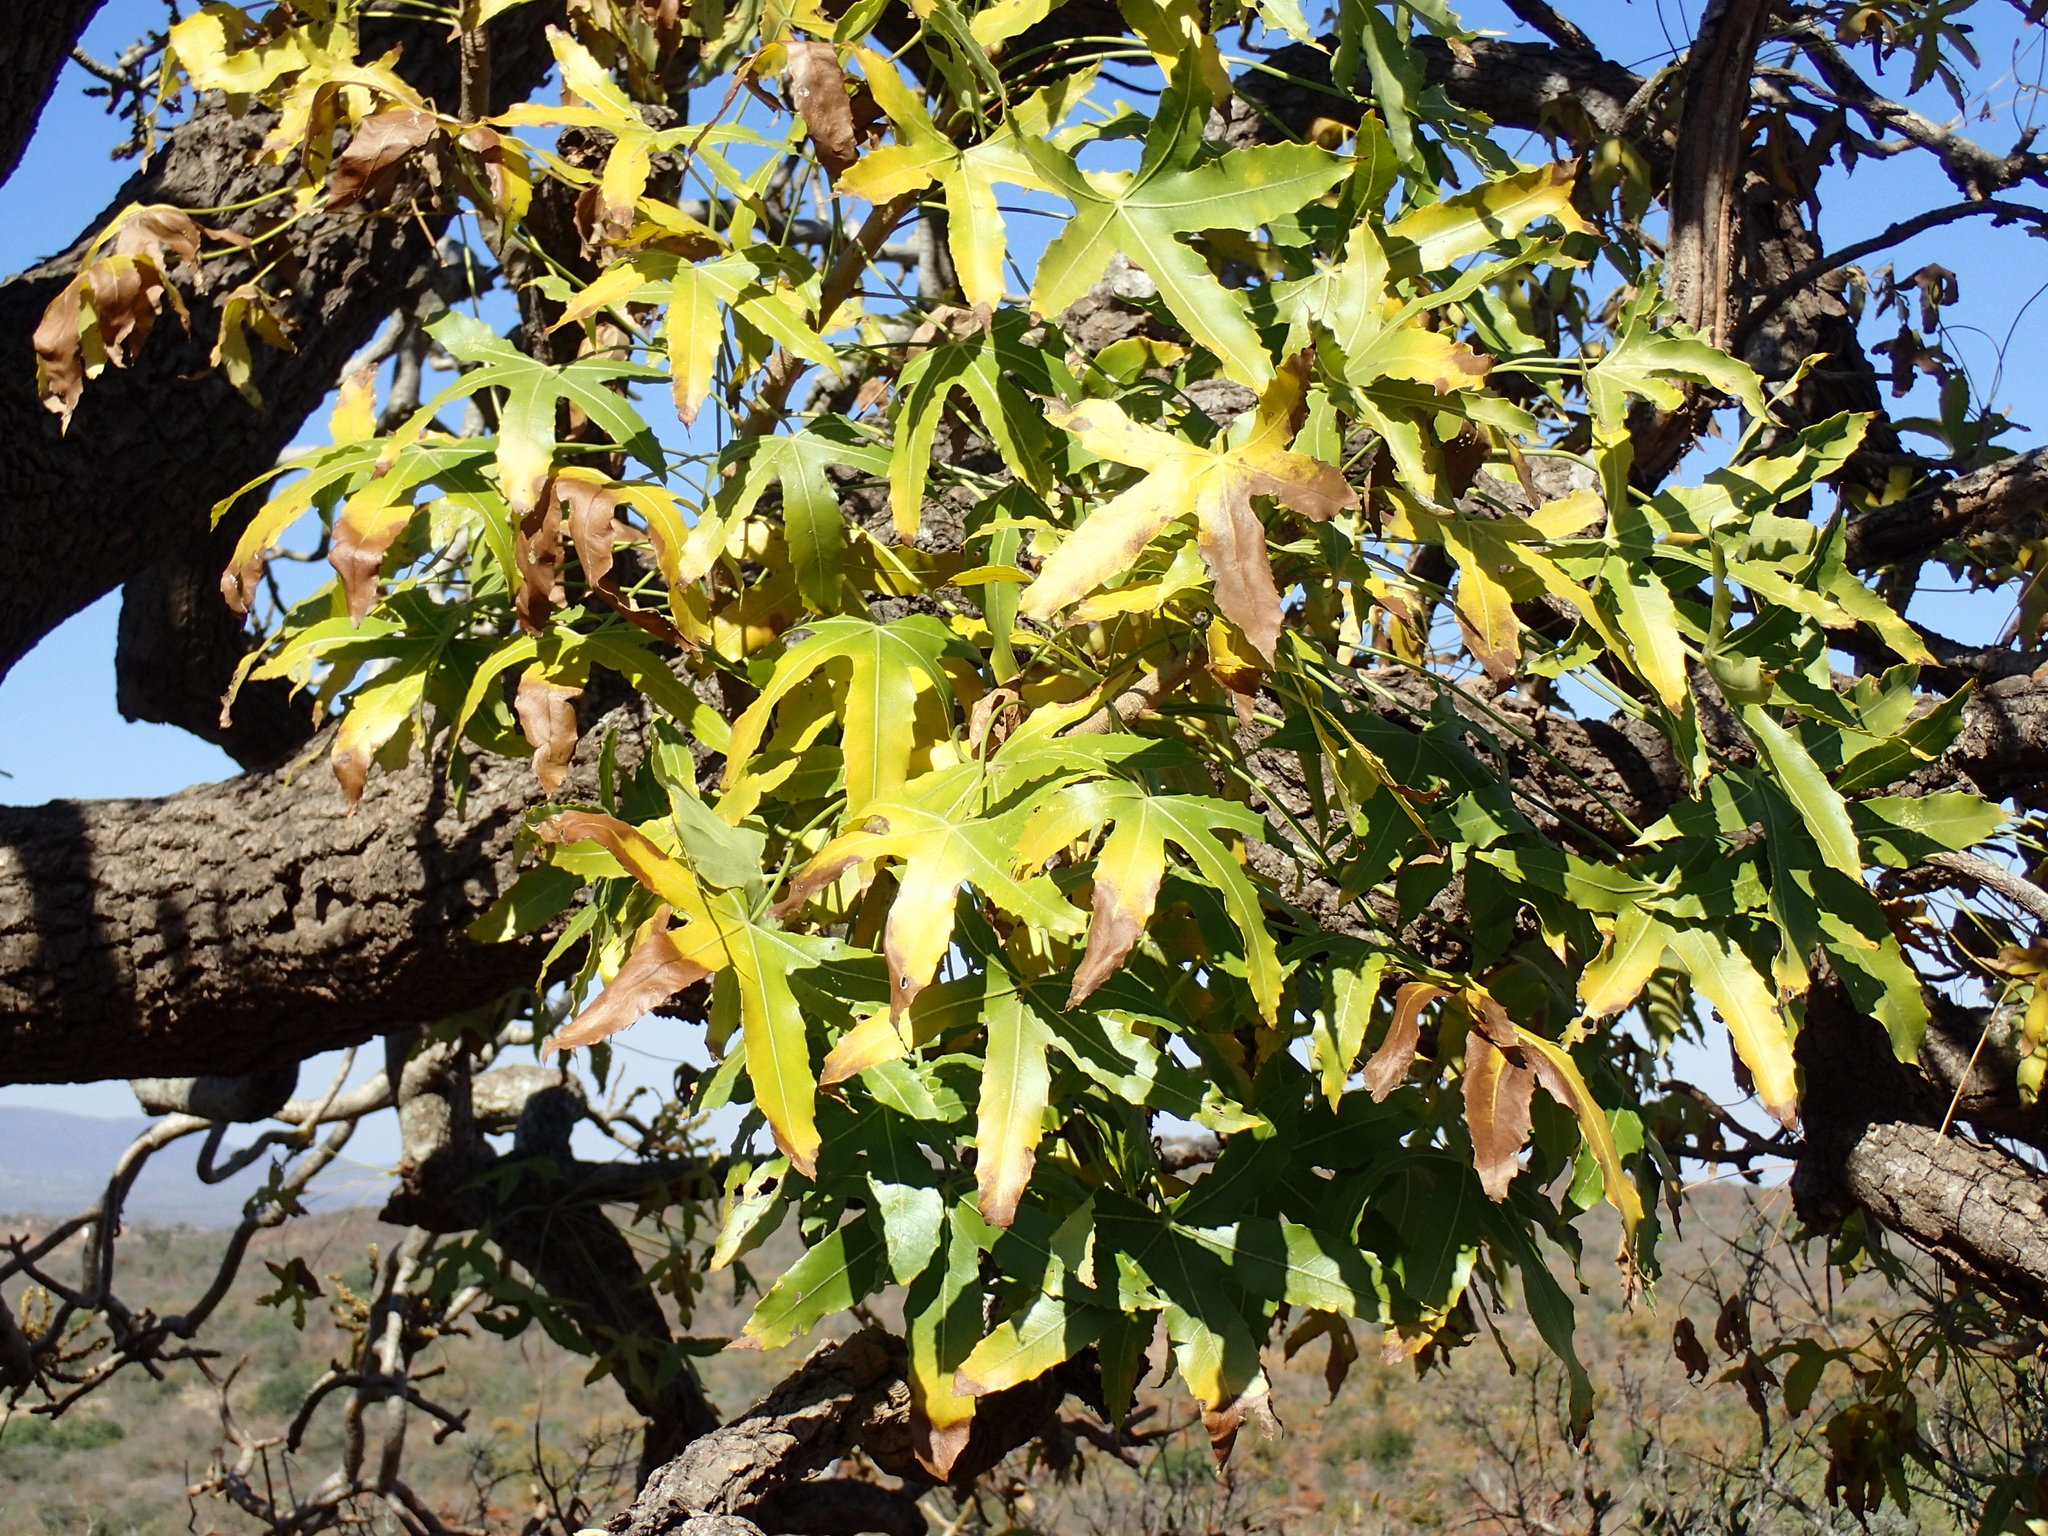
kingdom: Plantae
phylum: Tracheophyta
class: Magnoliopsida
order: Apiales
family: Araliaceae
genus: Cussonia
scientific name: Cussonia natalensis
